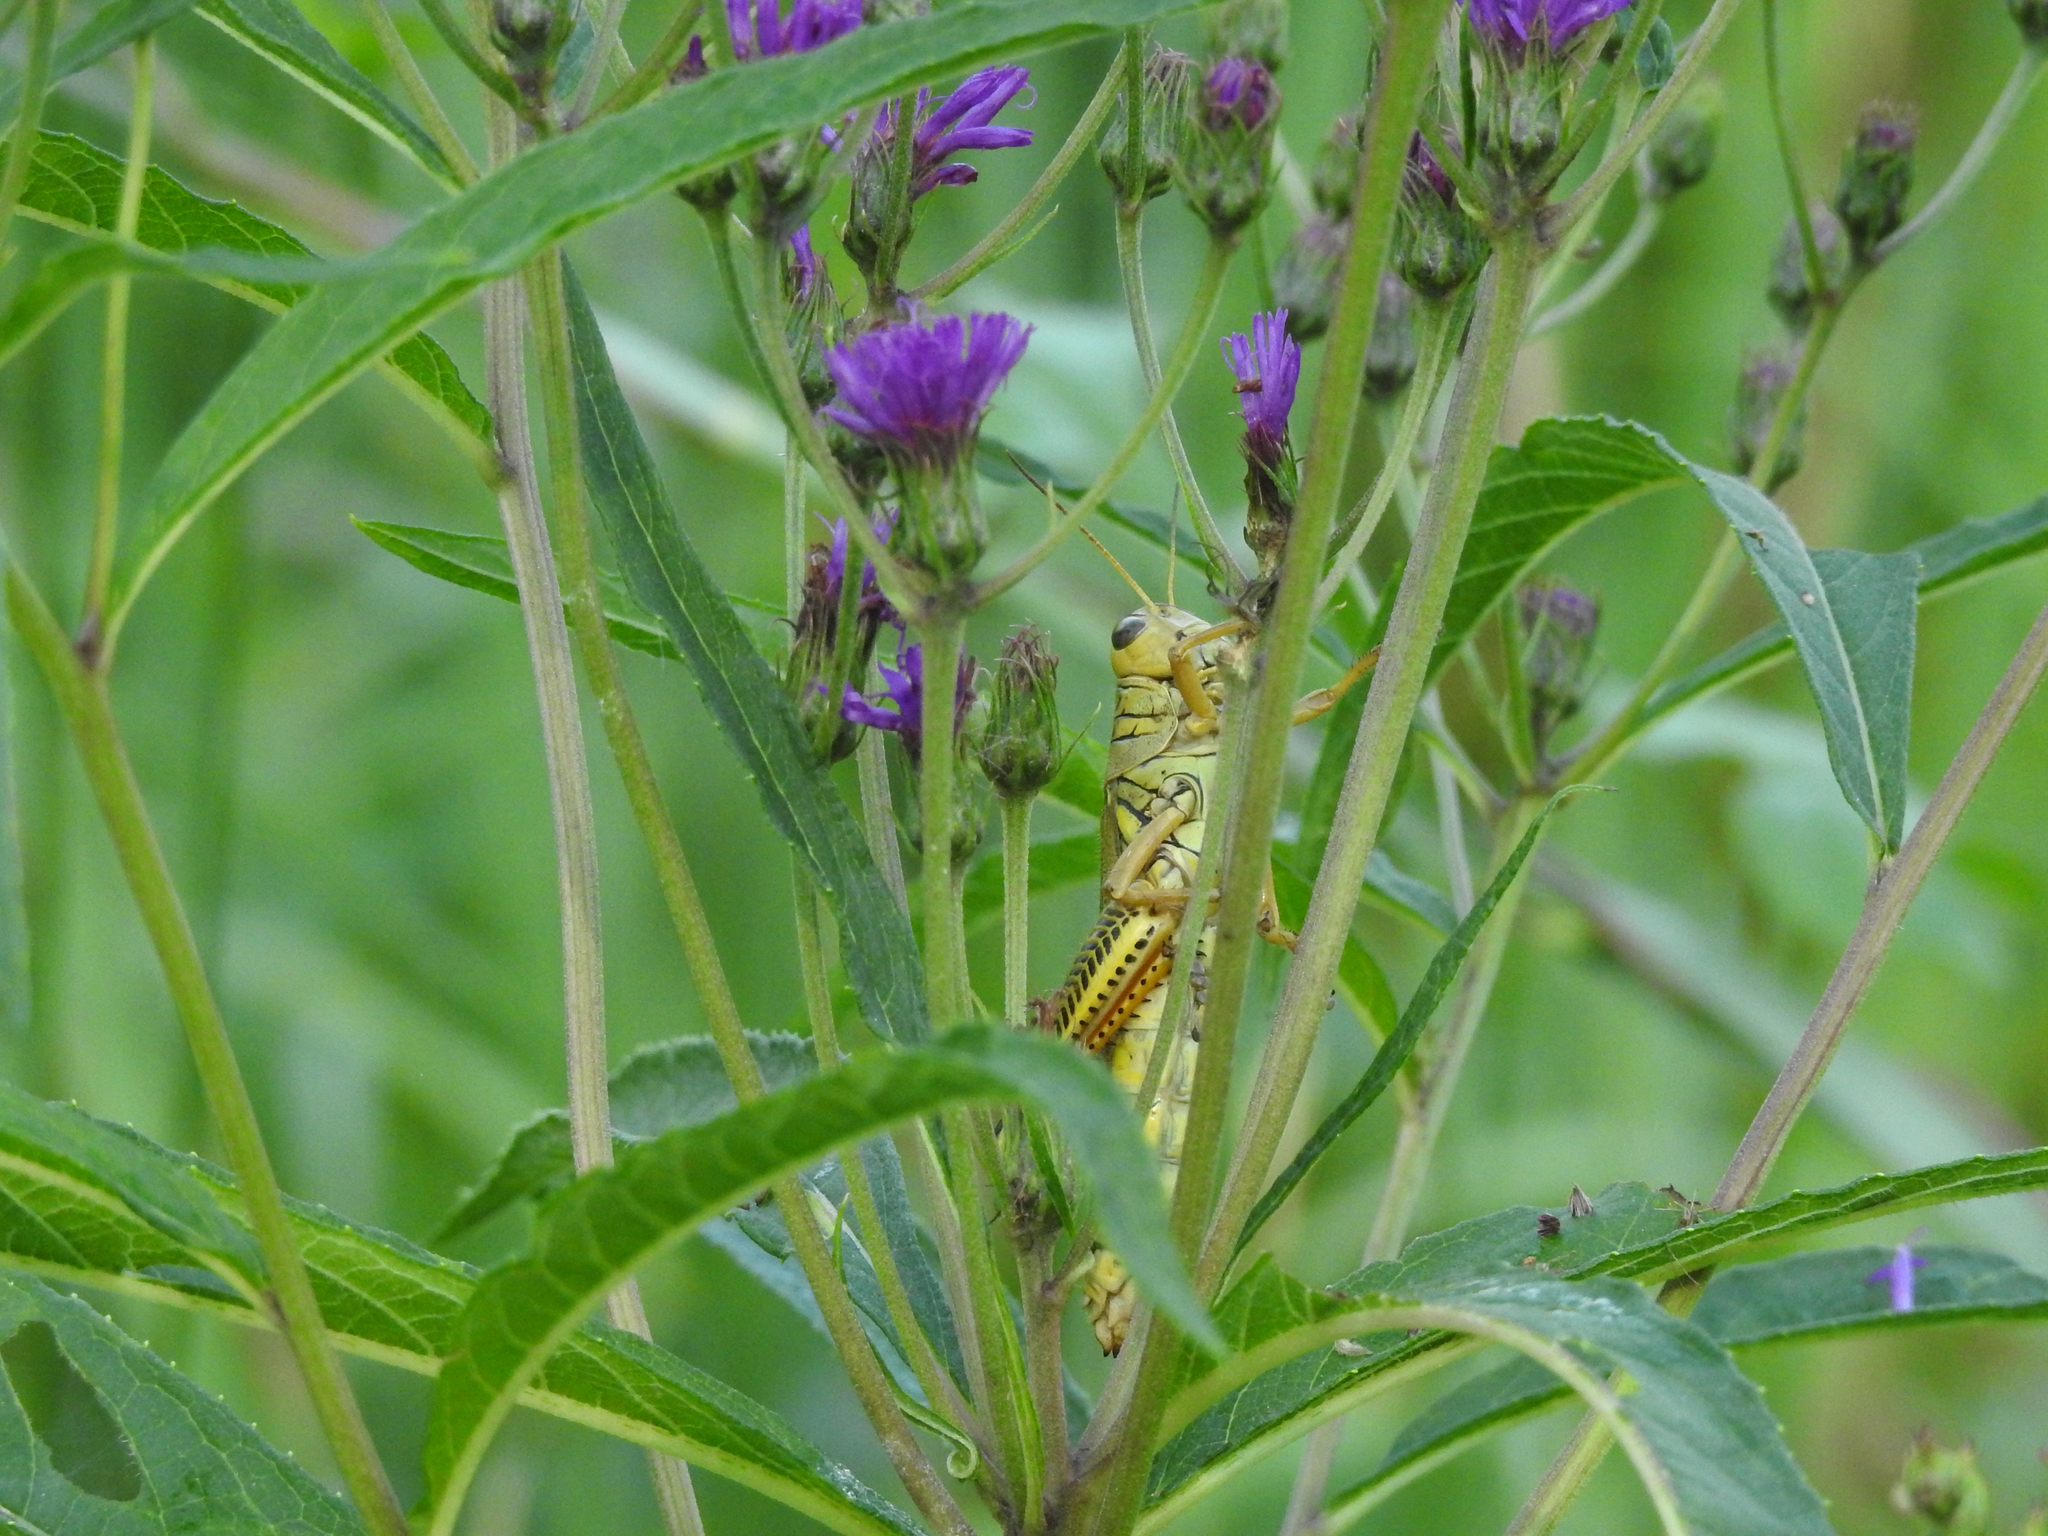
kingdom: Animalia
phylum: Arthropoda
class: Insecta
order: Orthoptera
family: Acrididae
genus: Melanoplus
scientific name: Melanoplus differentialis
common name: Differential grasshopper
